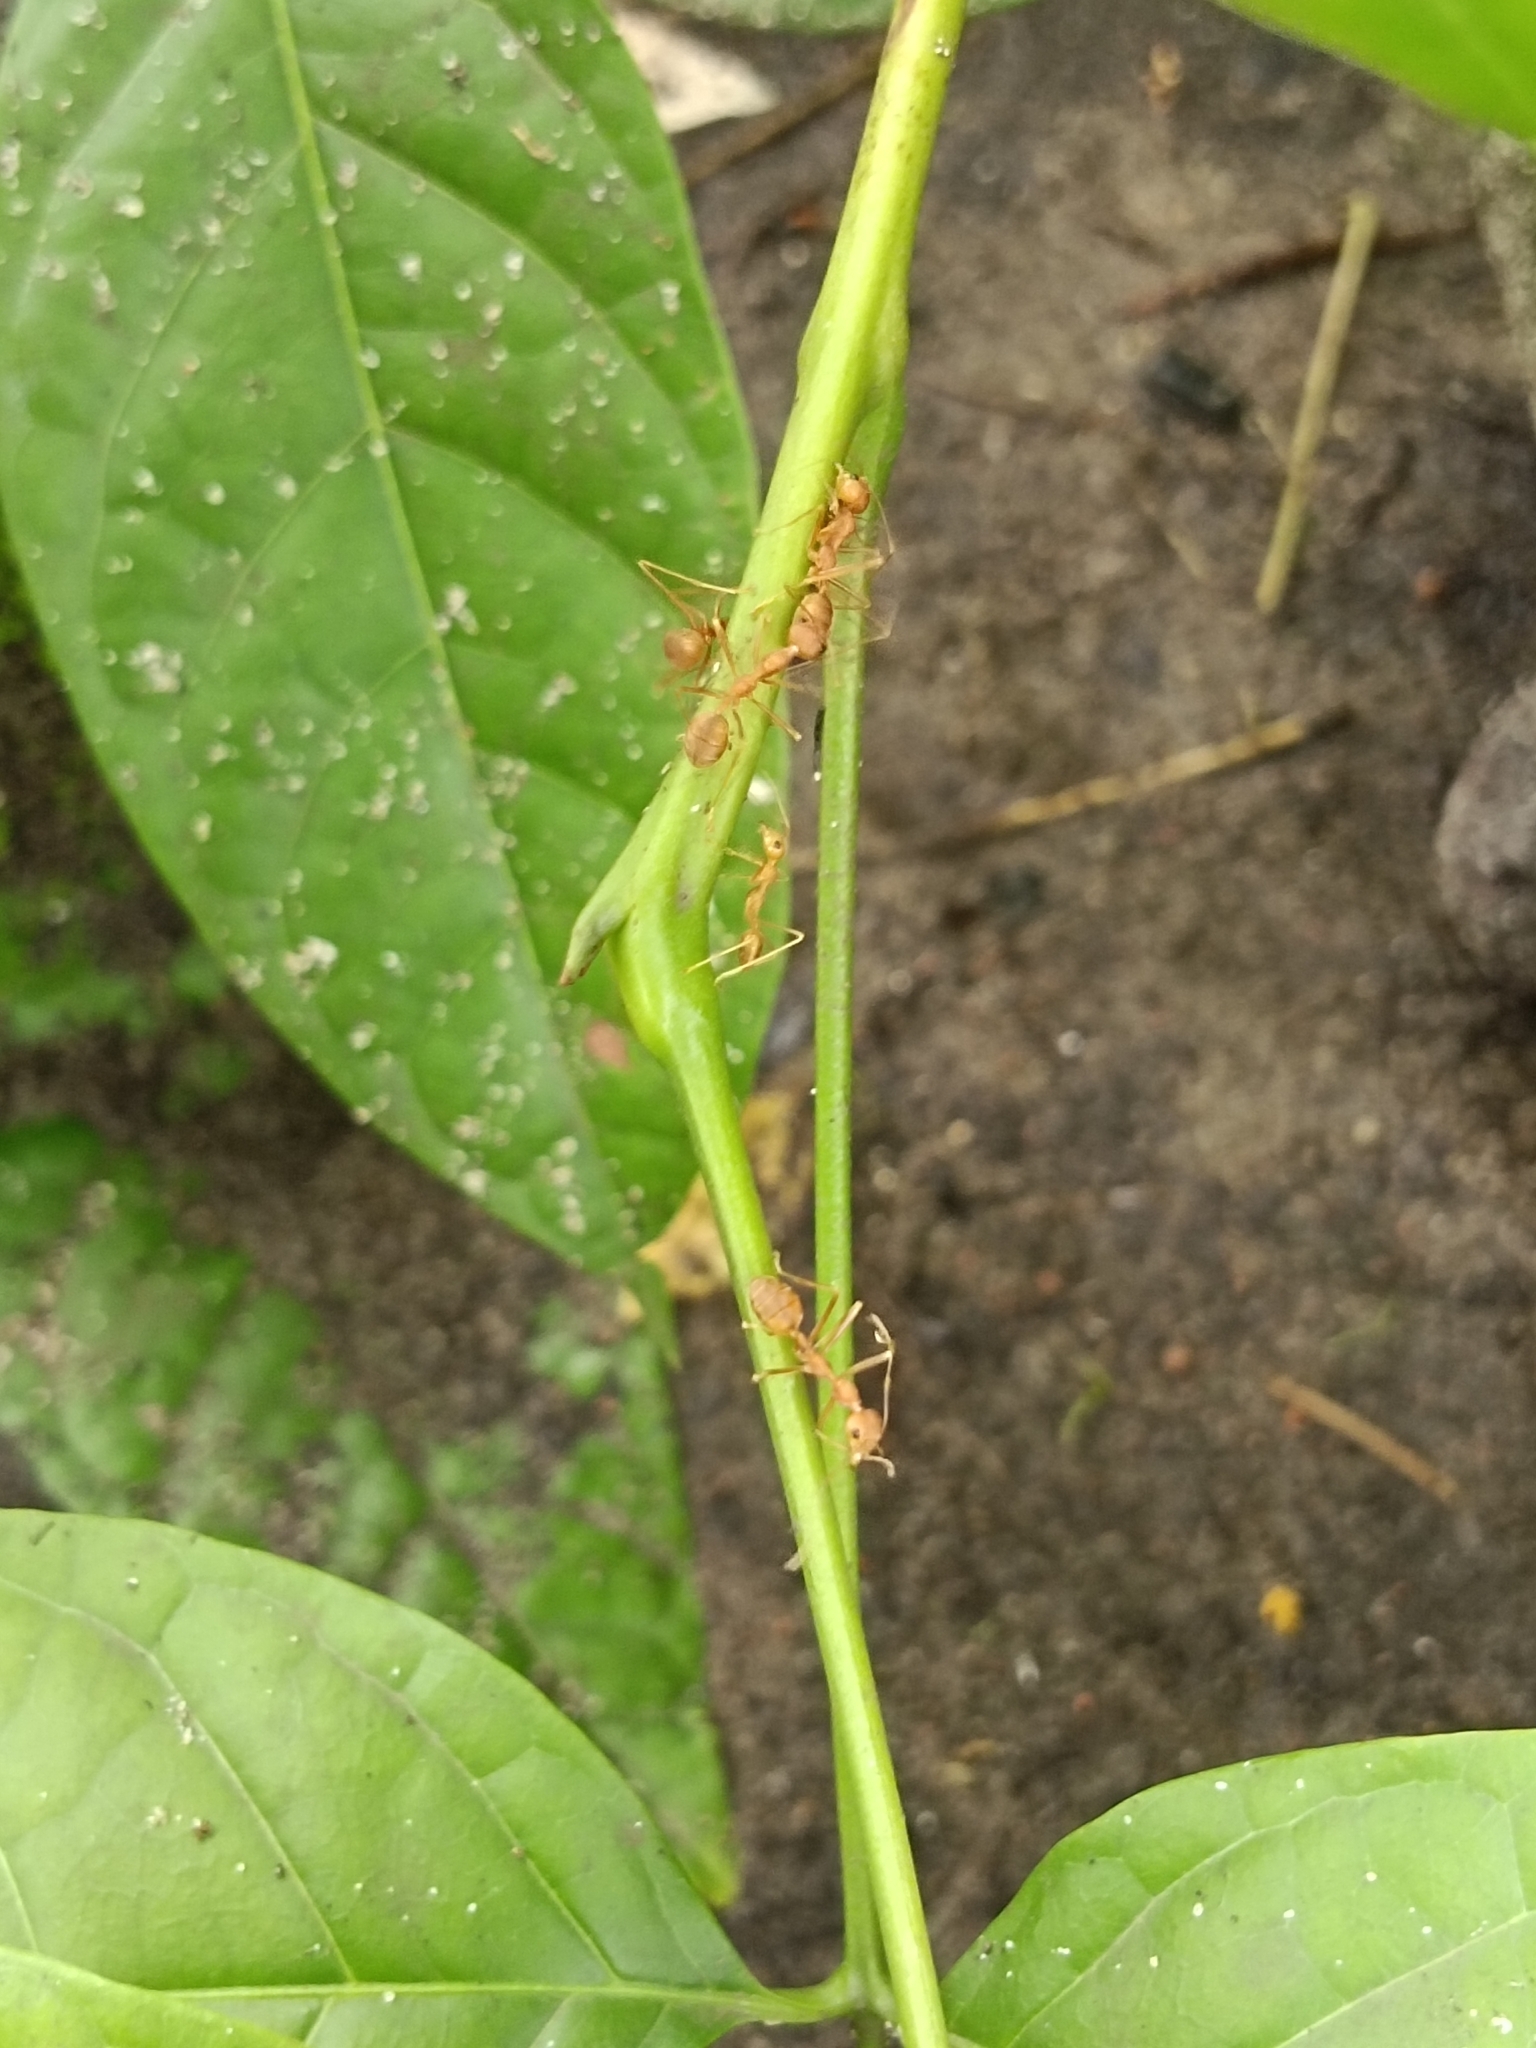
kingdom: Animalia
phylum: Arthropoda
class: Insecta
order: Hymenoptera
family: Formicidae
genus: Oecophylla
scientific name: Oecophylla smaragdina
